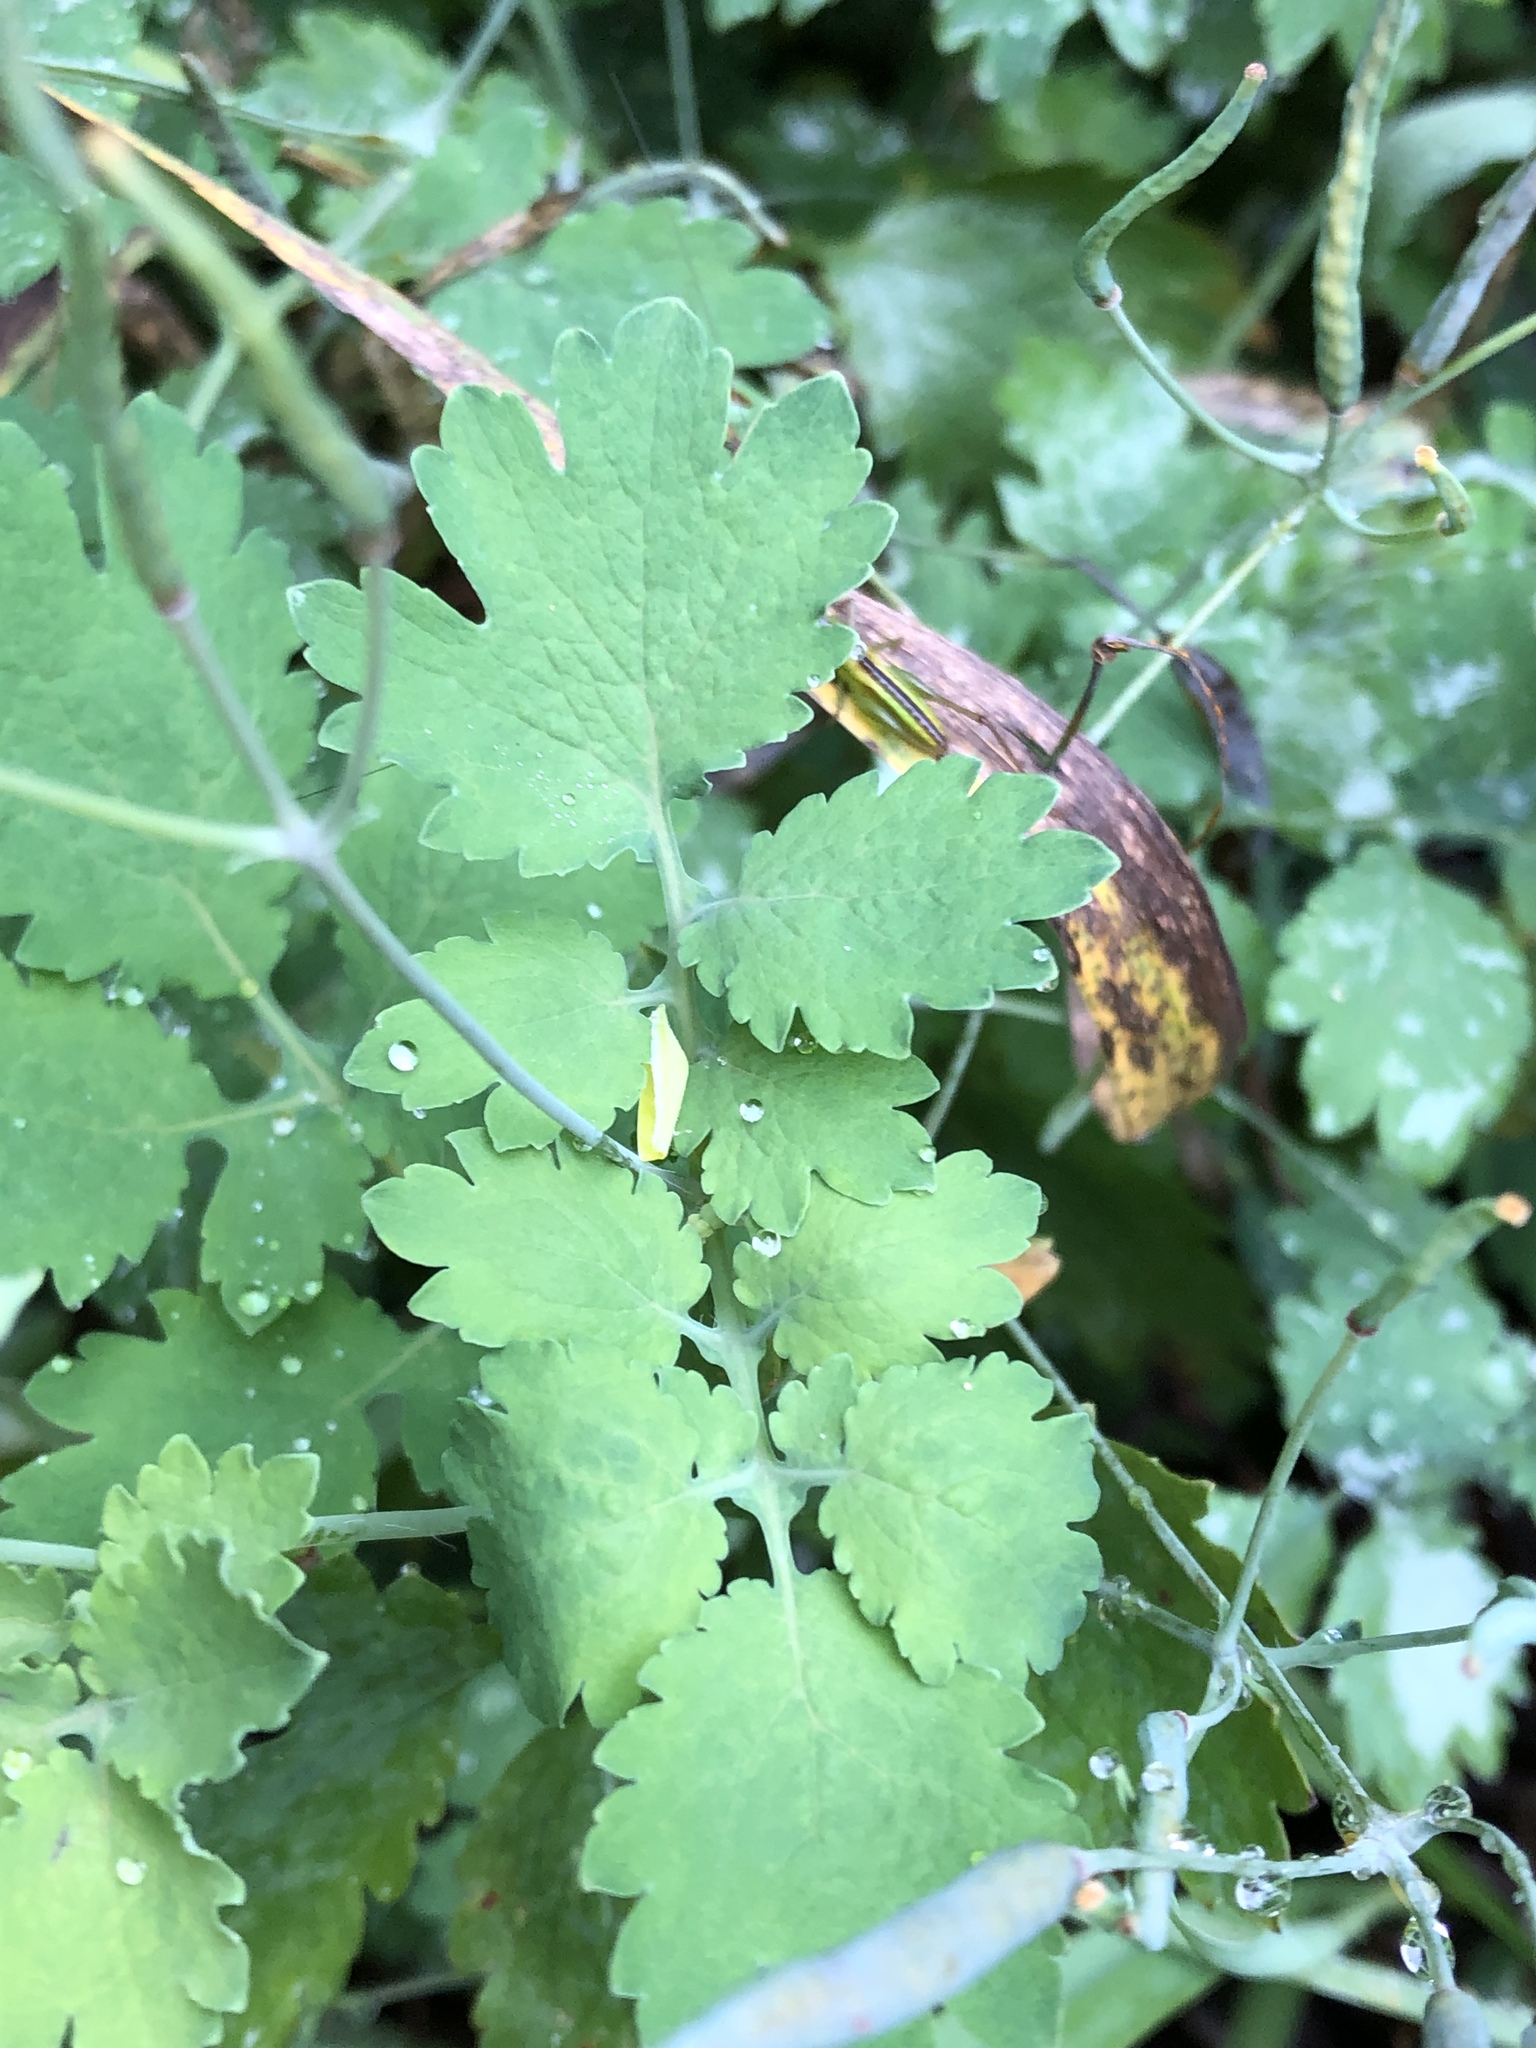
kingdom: Plantae
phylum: Tracheophyta
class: Magnoliopsida
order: Ranunculales
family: Papaveraceae
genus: Chelidonium
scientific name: Chelidonium majus
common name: Greater celandine
